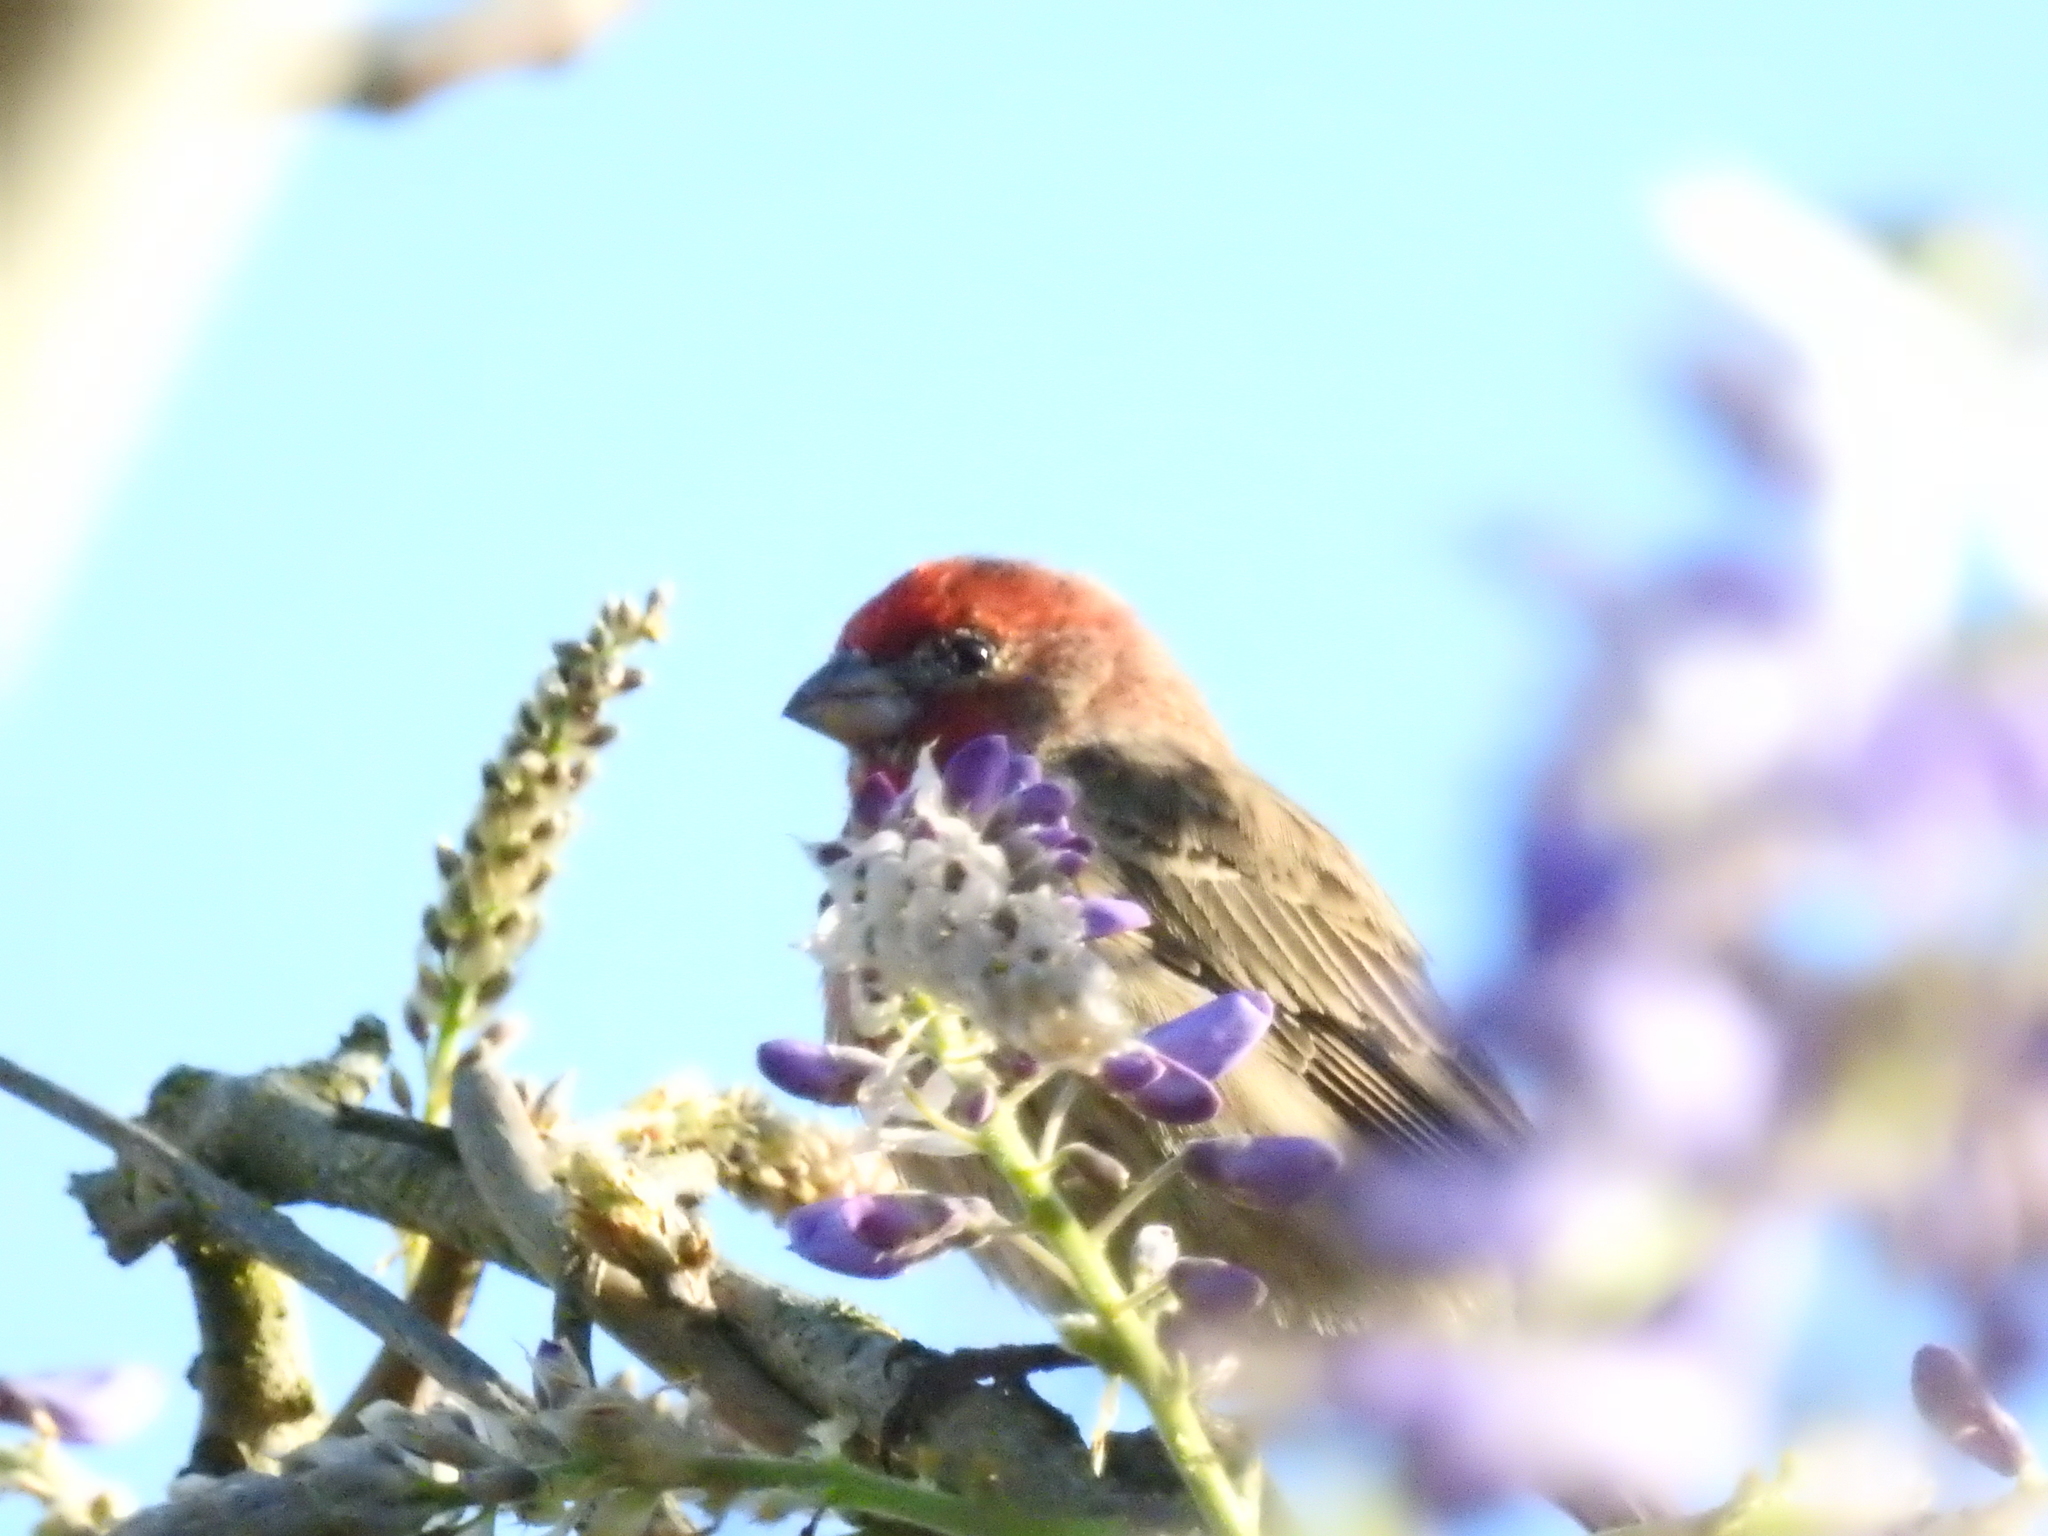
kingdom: Animalia
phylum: Chordata
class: Aves
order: Passeriformes
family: Fringillidae
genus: Haemorhous
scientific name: Haemorhous mexicanus
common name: House finch
